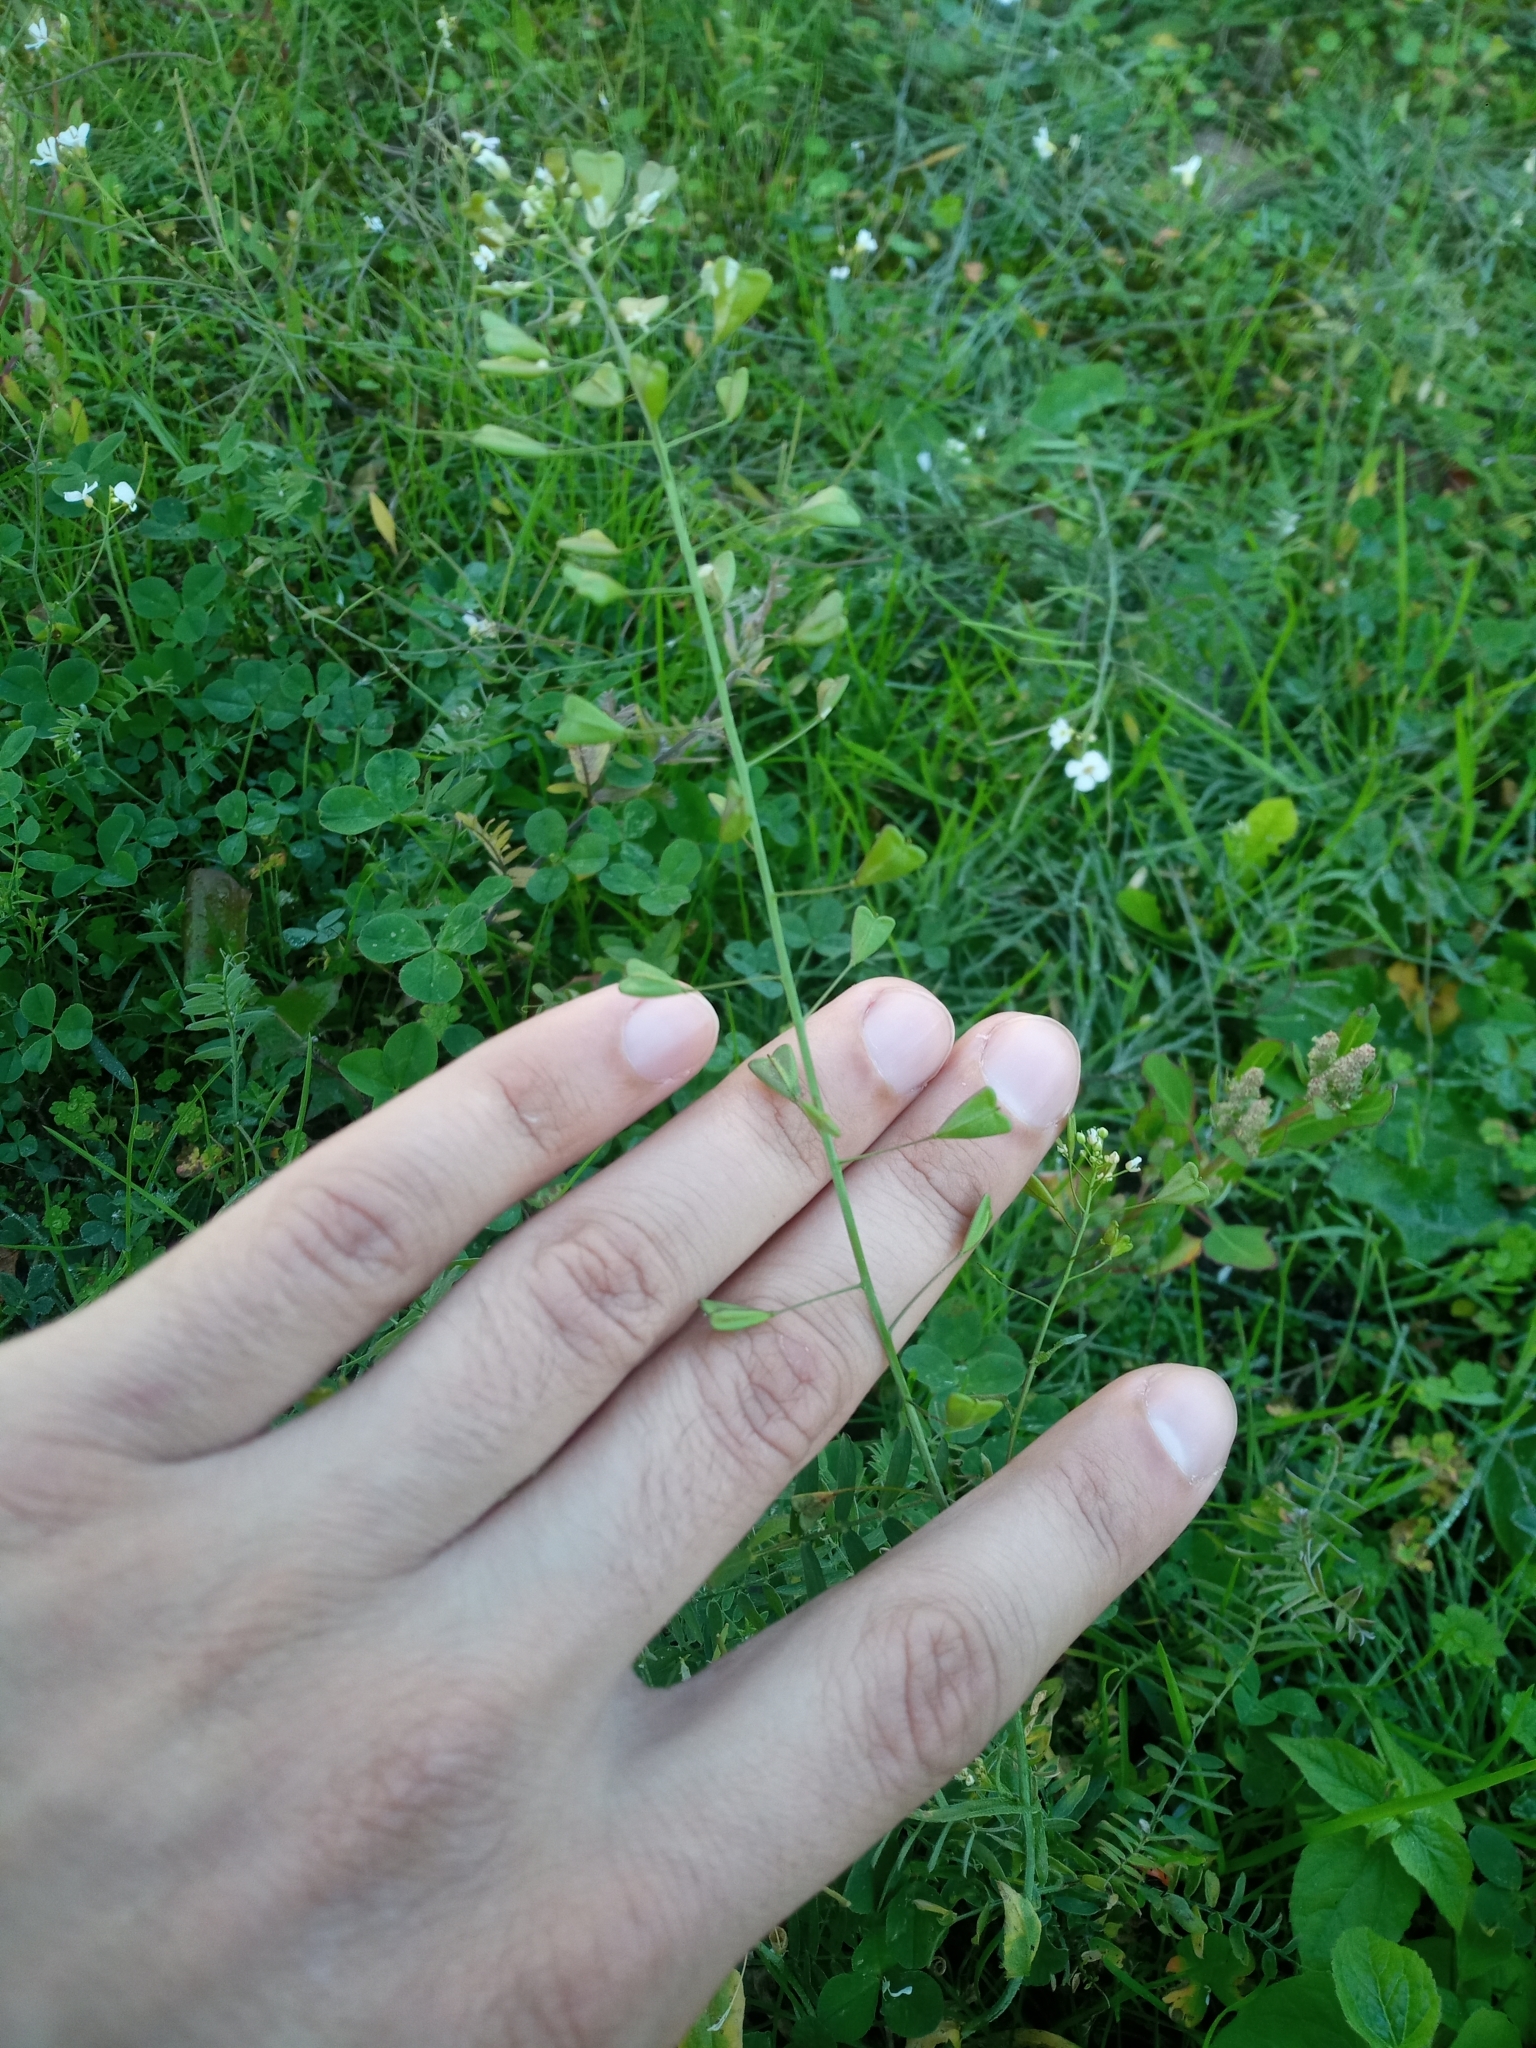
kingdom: Plantae
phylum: Tracheophyta
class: Magnoliopsida
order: Brassicales
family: Brassicaceae
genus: Capsella
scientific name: Capsella bursa-pastoris
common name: Shepherd's purse
